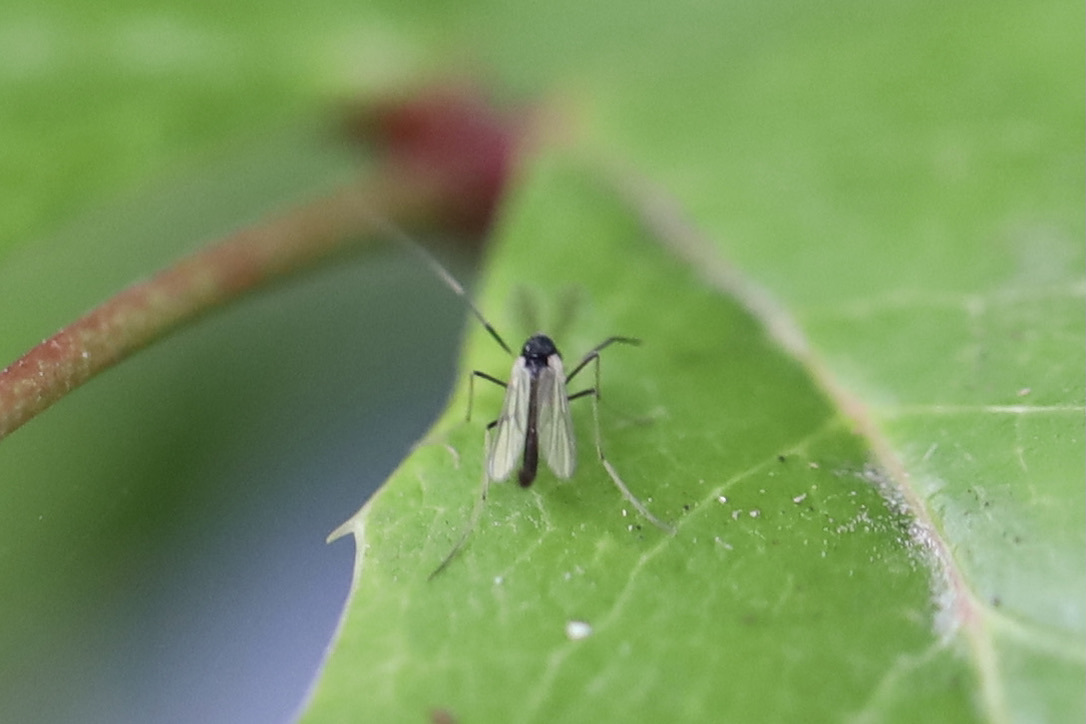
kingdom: Animalia
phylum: Arthropoda
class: Insecta
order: Diptera
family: Chironomidae
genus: Paratendipes
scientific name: Paratendipes albimanus
